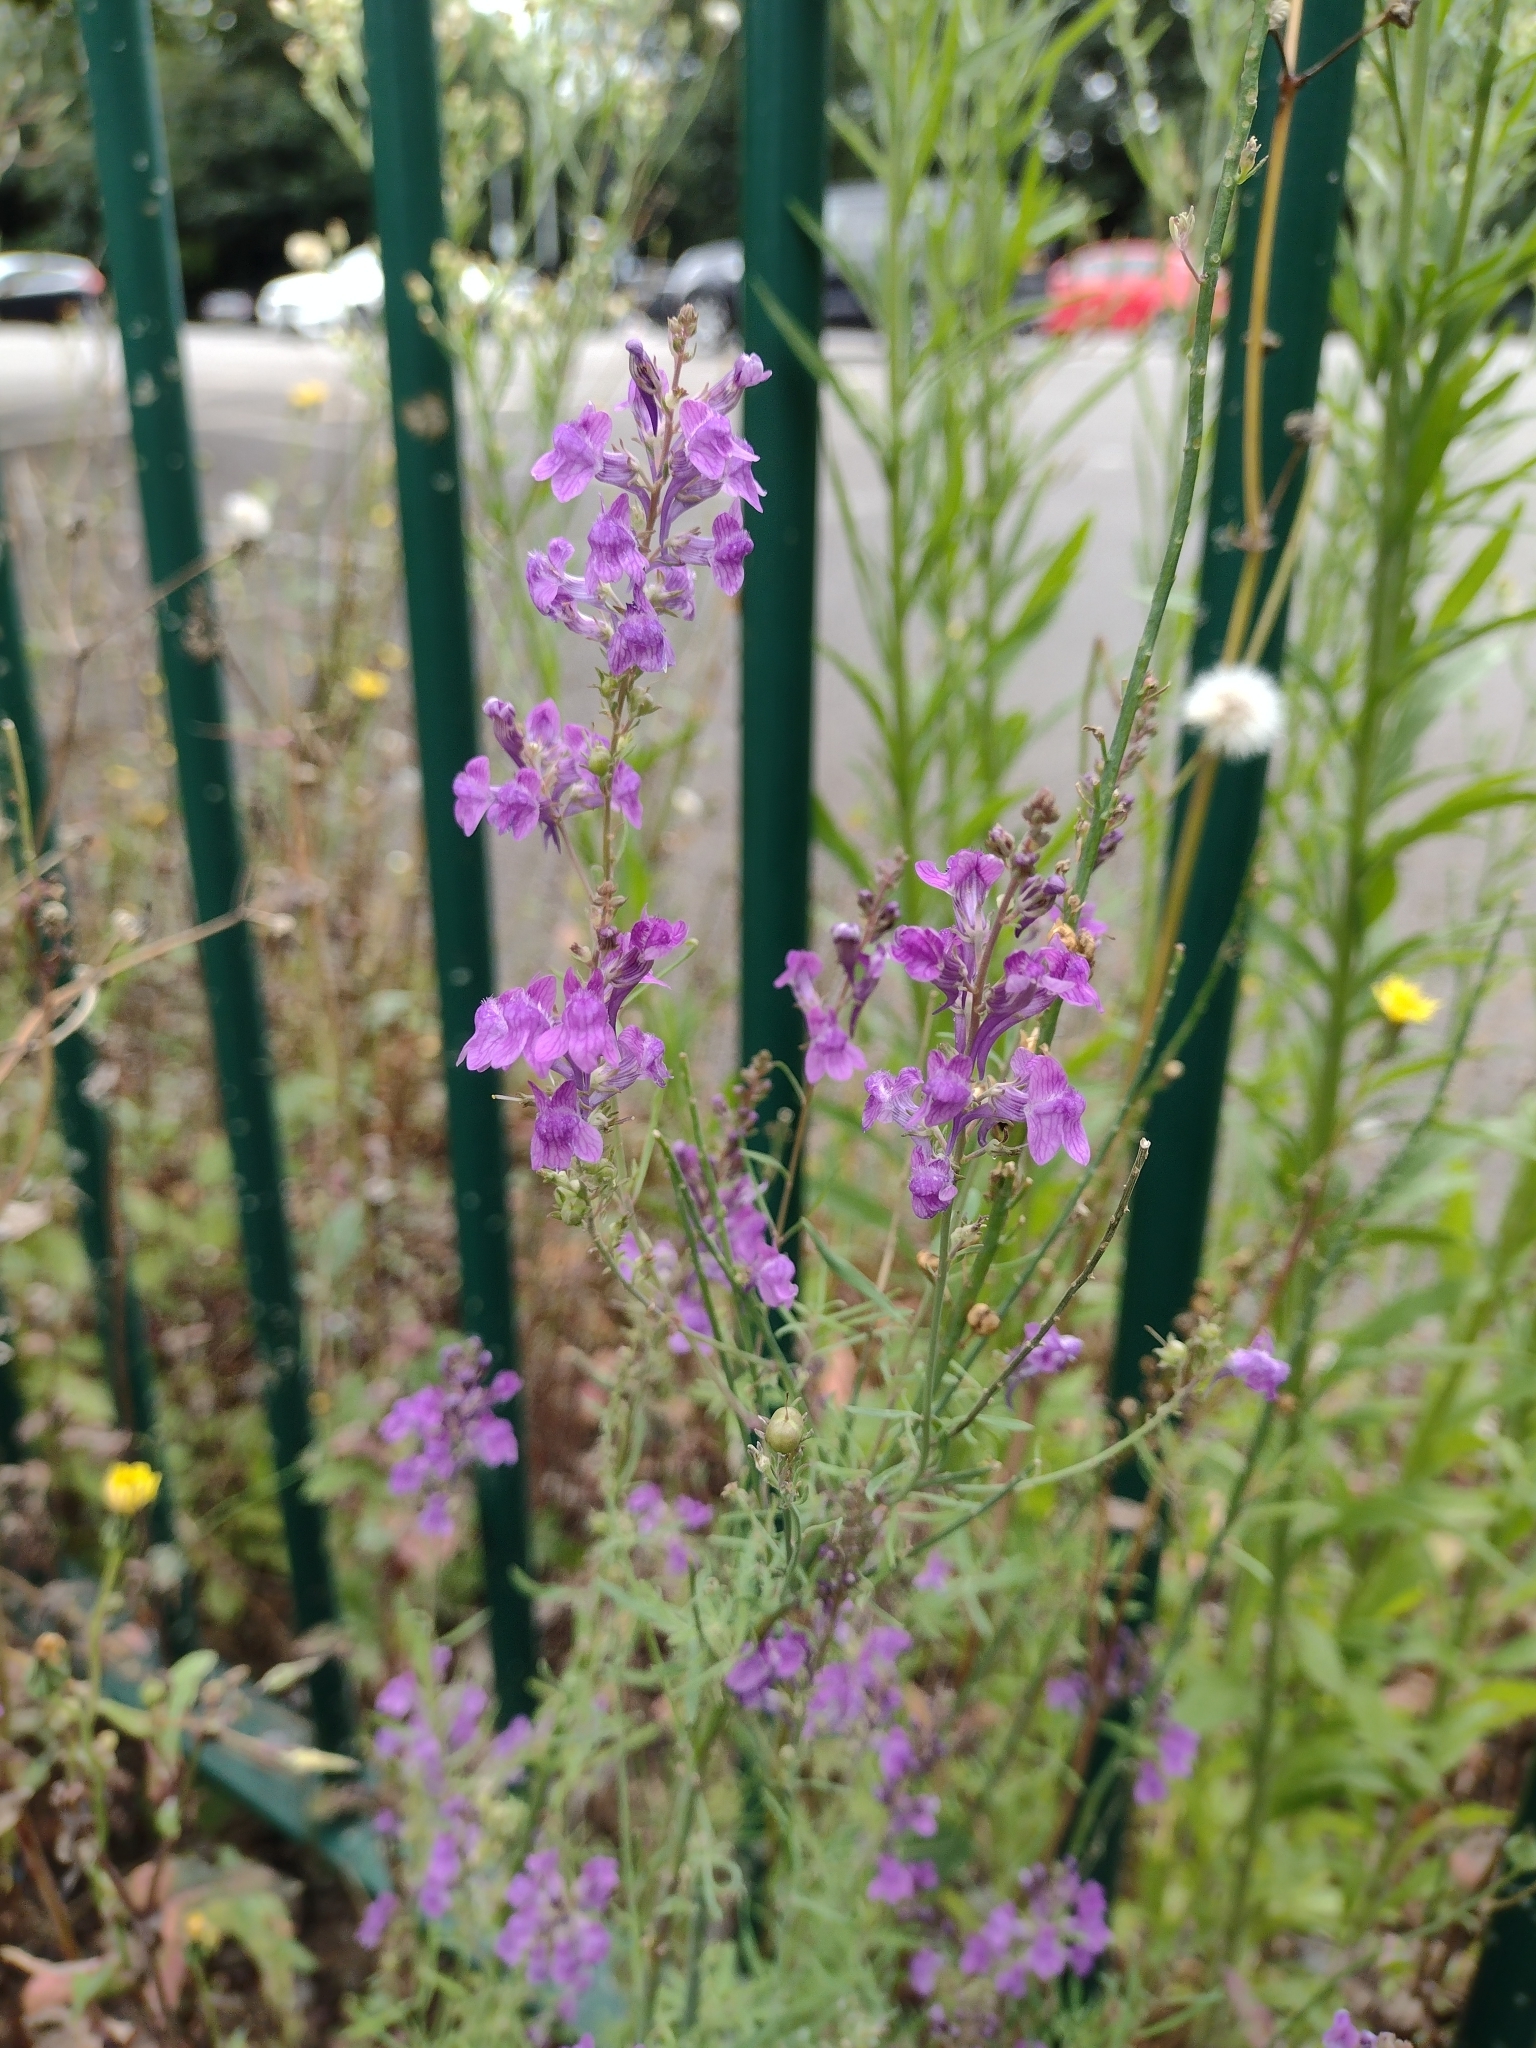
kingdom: Plantae
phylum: Tracheophyta
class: Magnoliopsida
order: Lamiales
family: Plantaginaceae
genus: Linaria
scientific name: Linaria purpurea
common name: Purple toadflax
